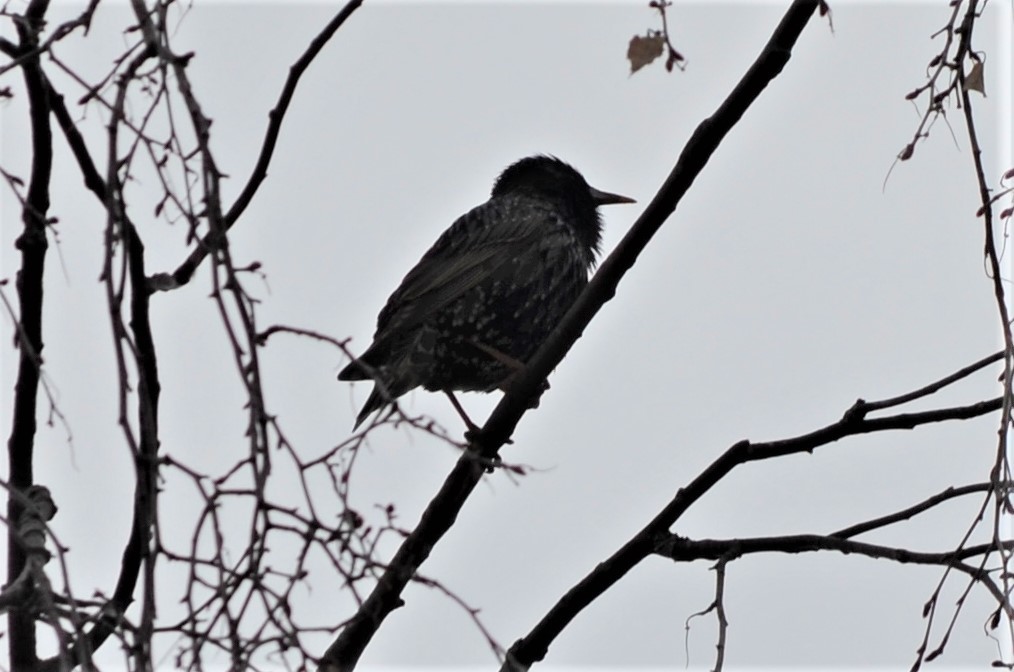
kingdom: Animalia
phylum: Chordata
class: Aves
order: Passeriformes
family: Sturnidae
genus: Sturnus
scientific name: Sturnus vulgaris
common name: Common starling
